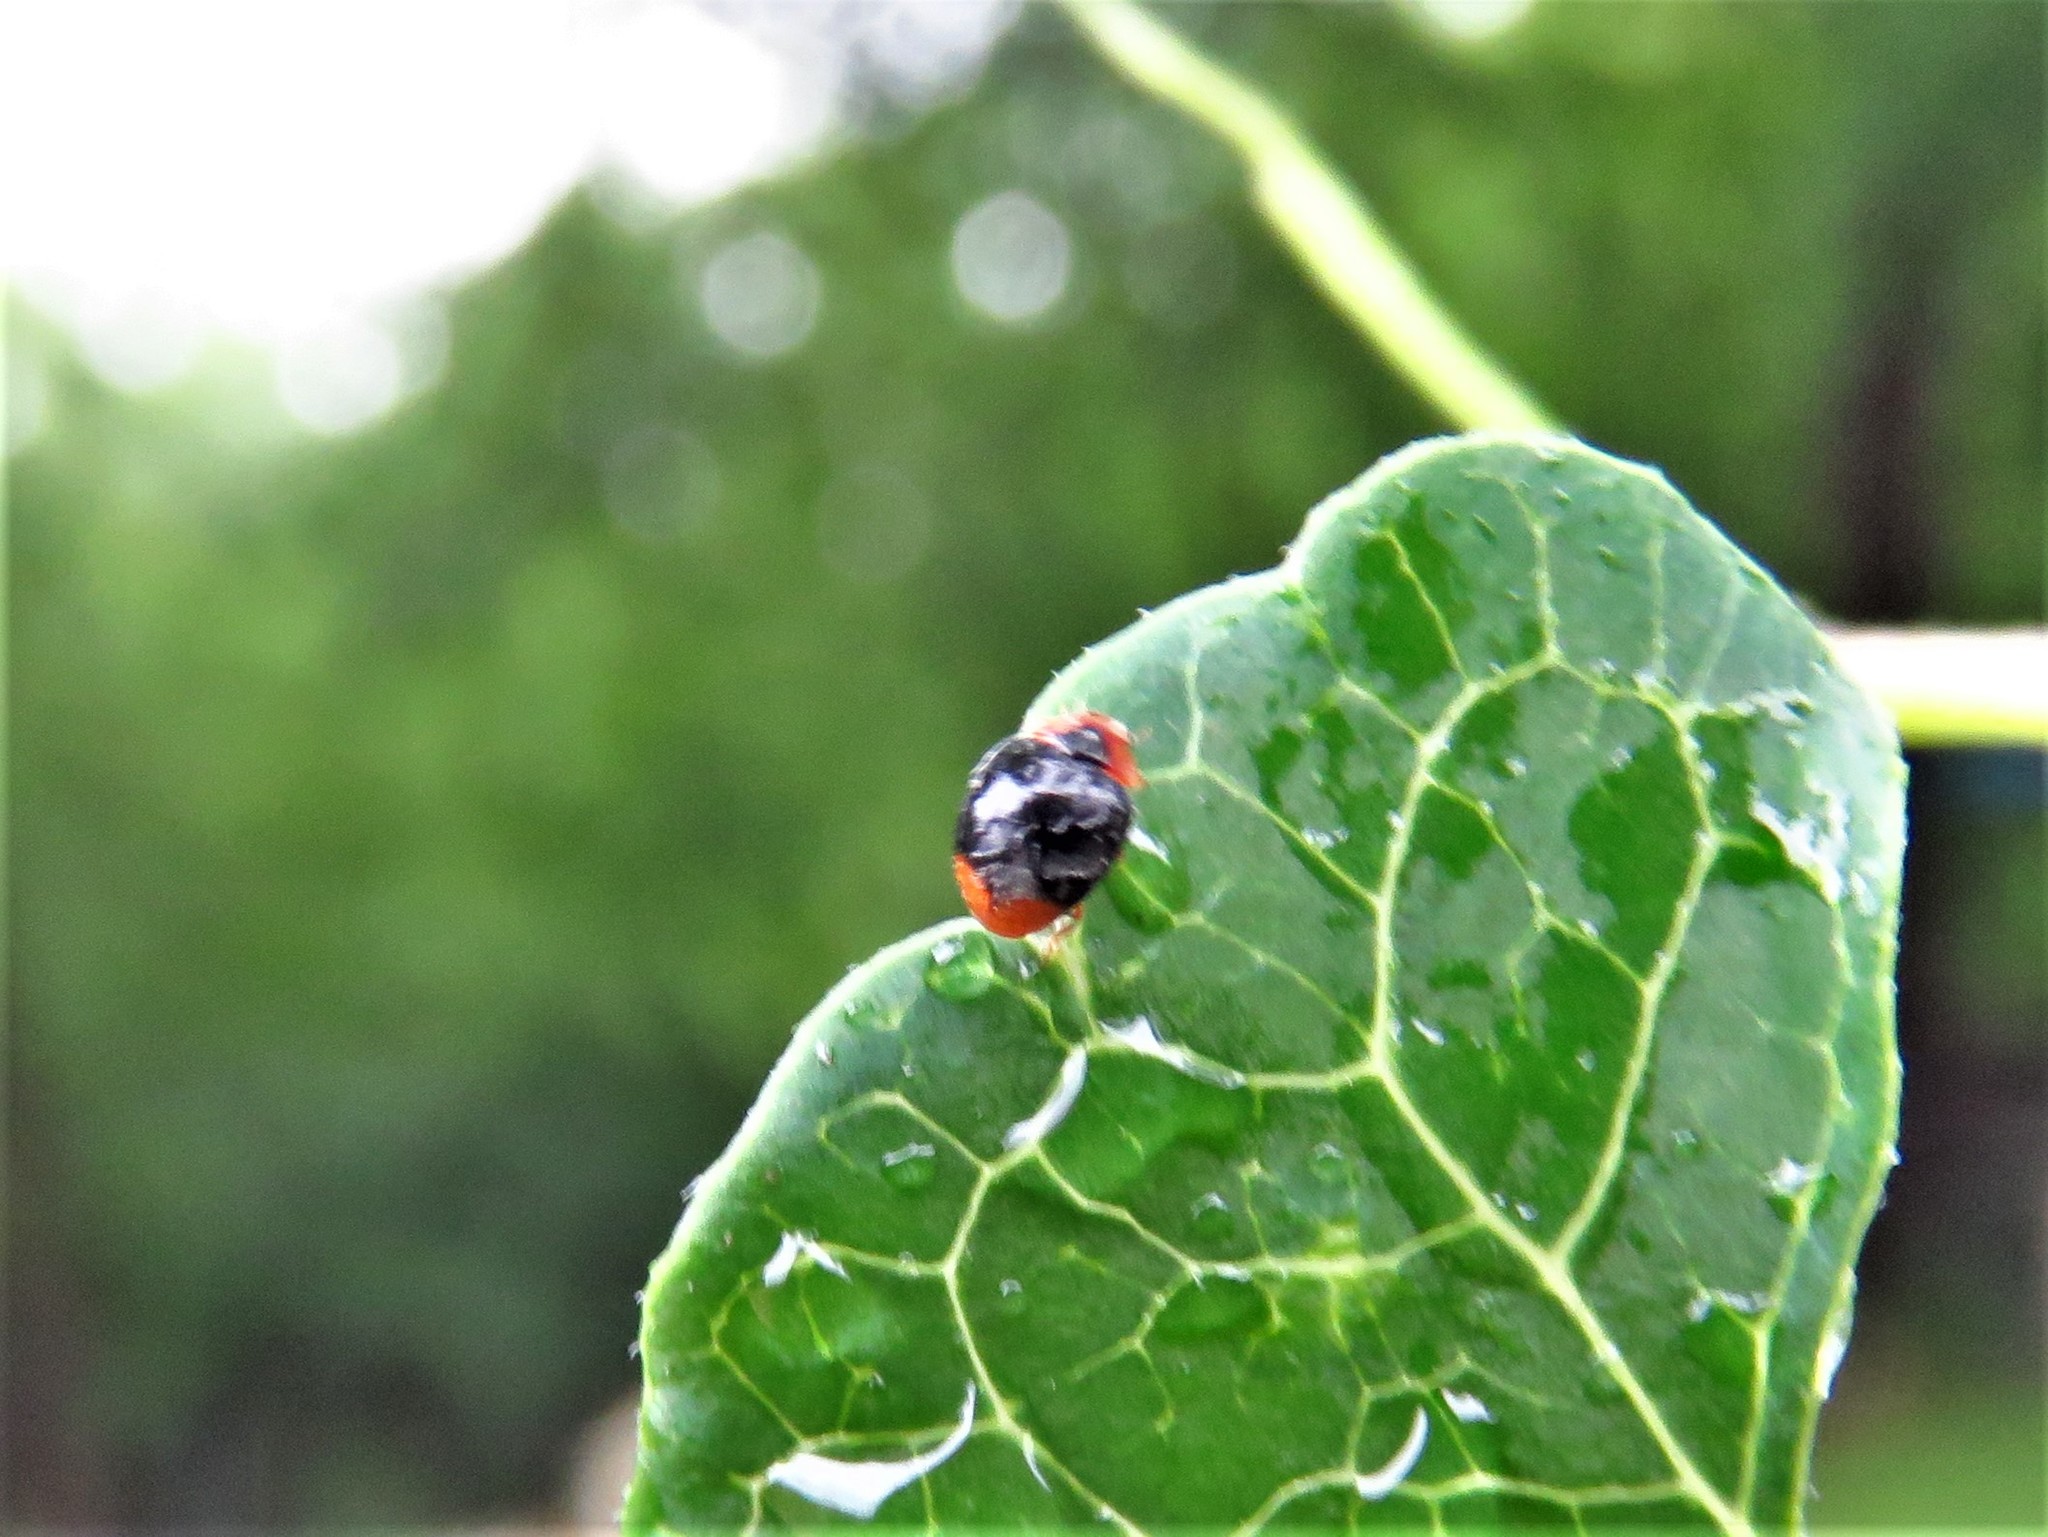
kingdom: Animalia
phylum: Arthropoda
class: Insecta
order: Coleoptera
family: Coccinellidae
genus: Scymnus
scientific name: Scymnus louisianae
